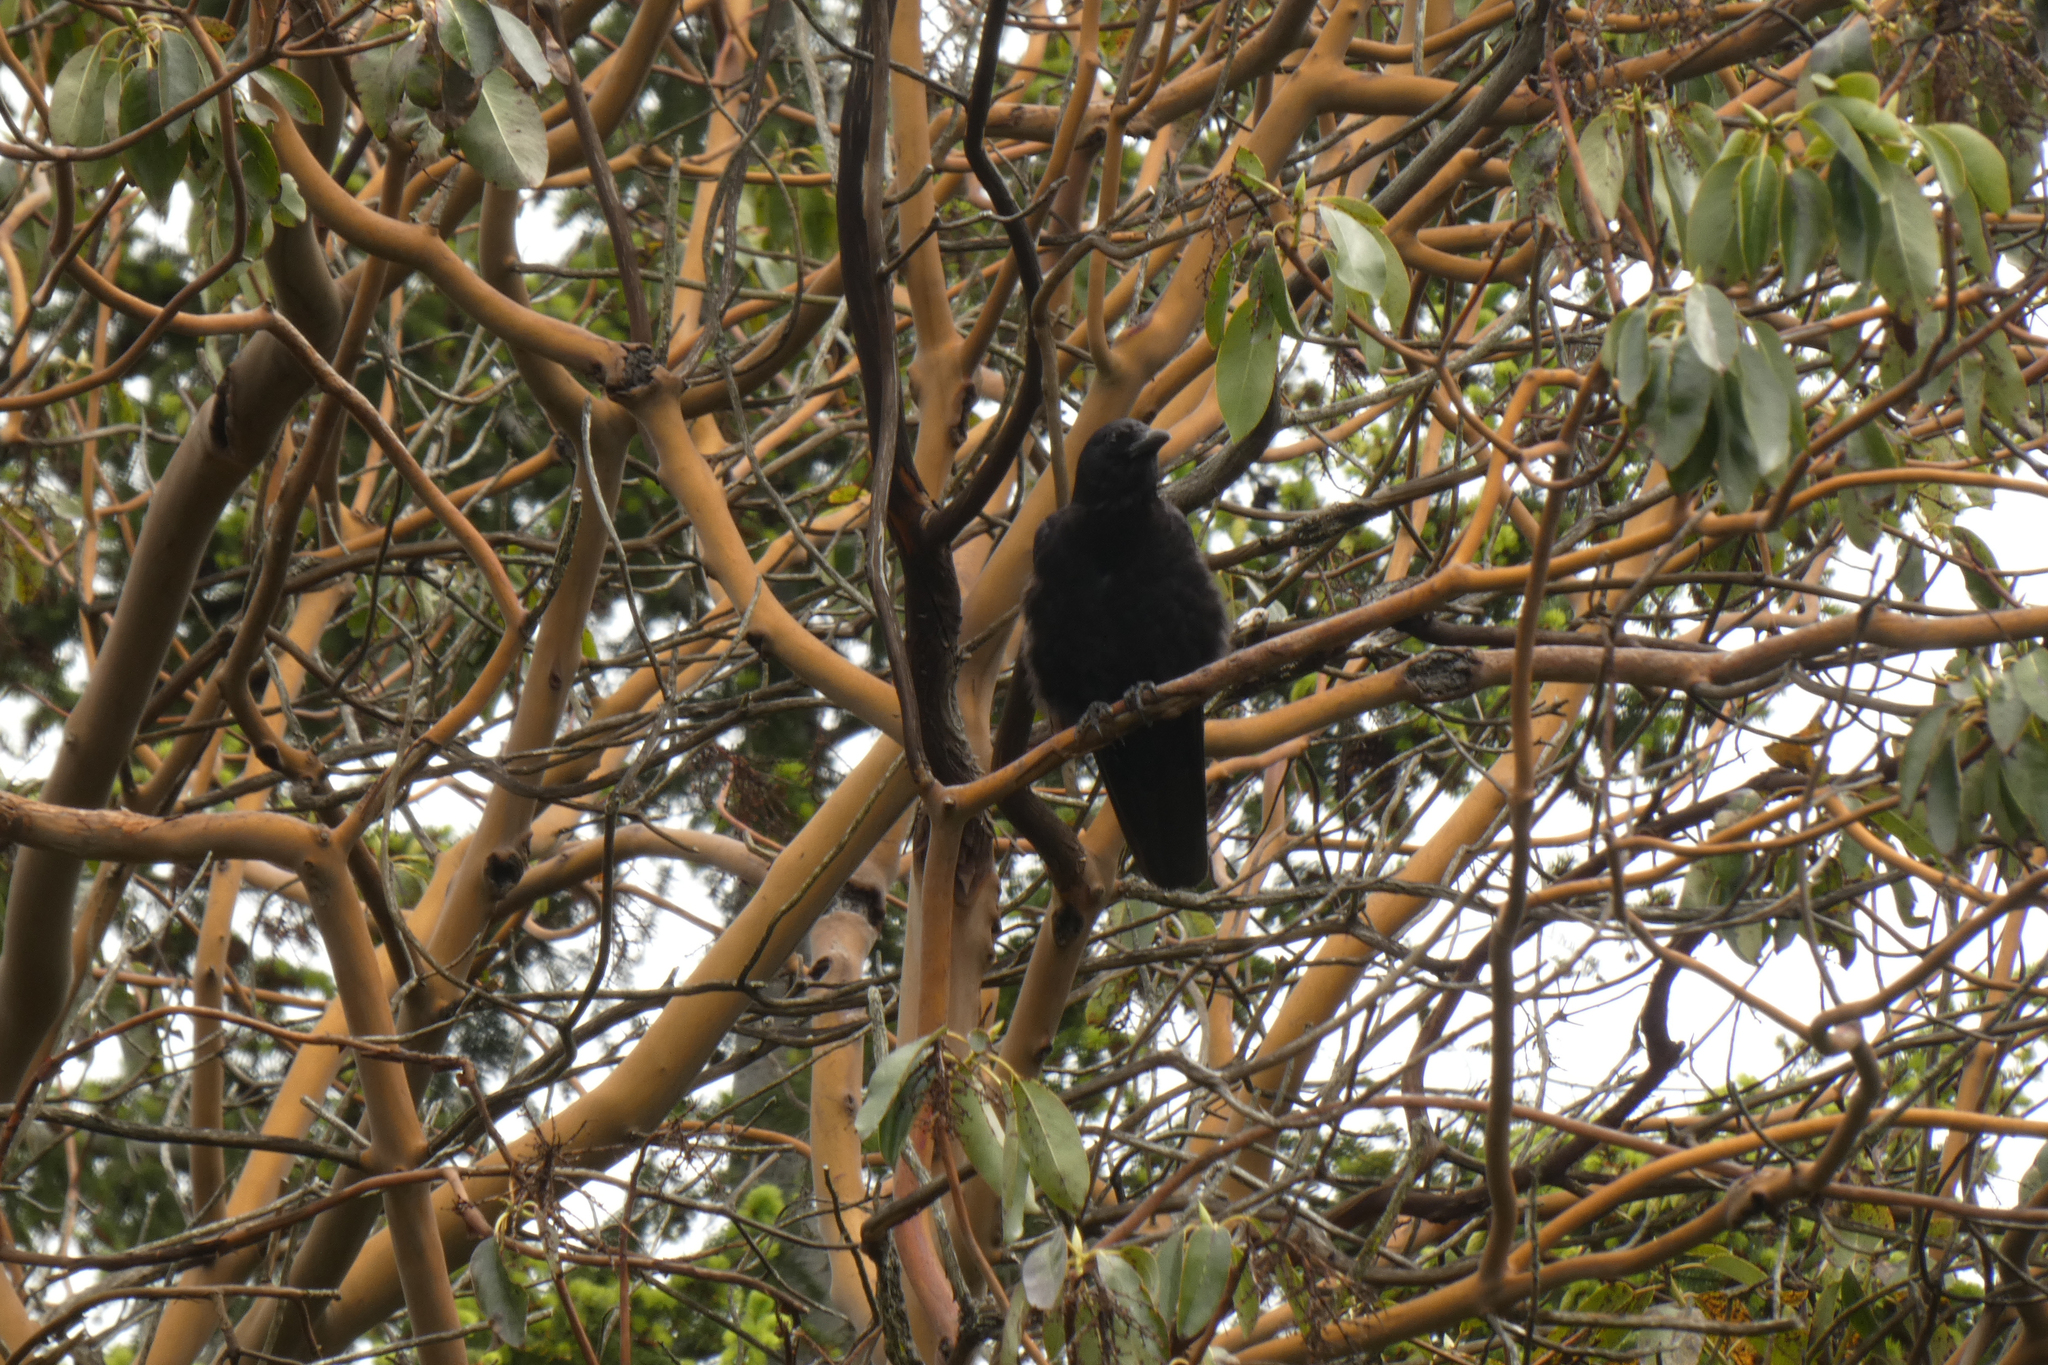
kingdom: Animalia
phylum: Chordata
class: Aves
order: Passeriformes
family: Corvidae
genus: Corvus
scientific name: Corvus brachyrhynchos
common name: American crow
